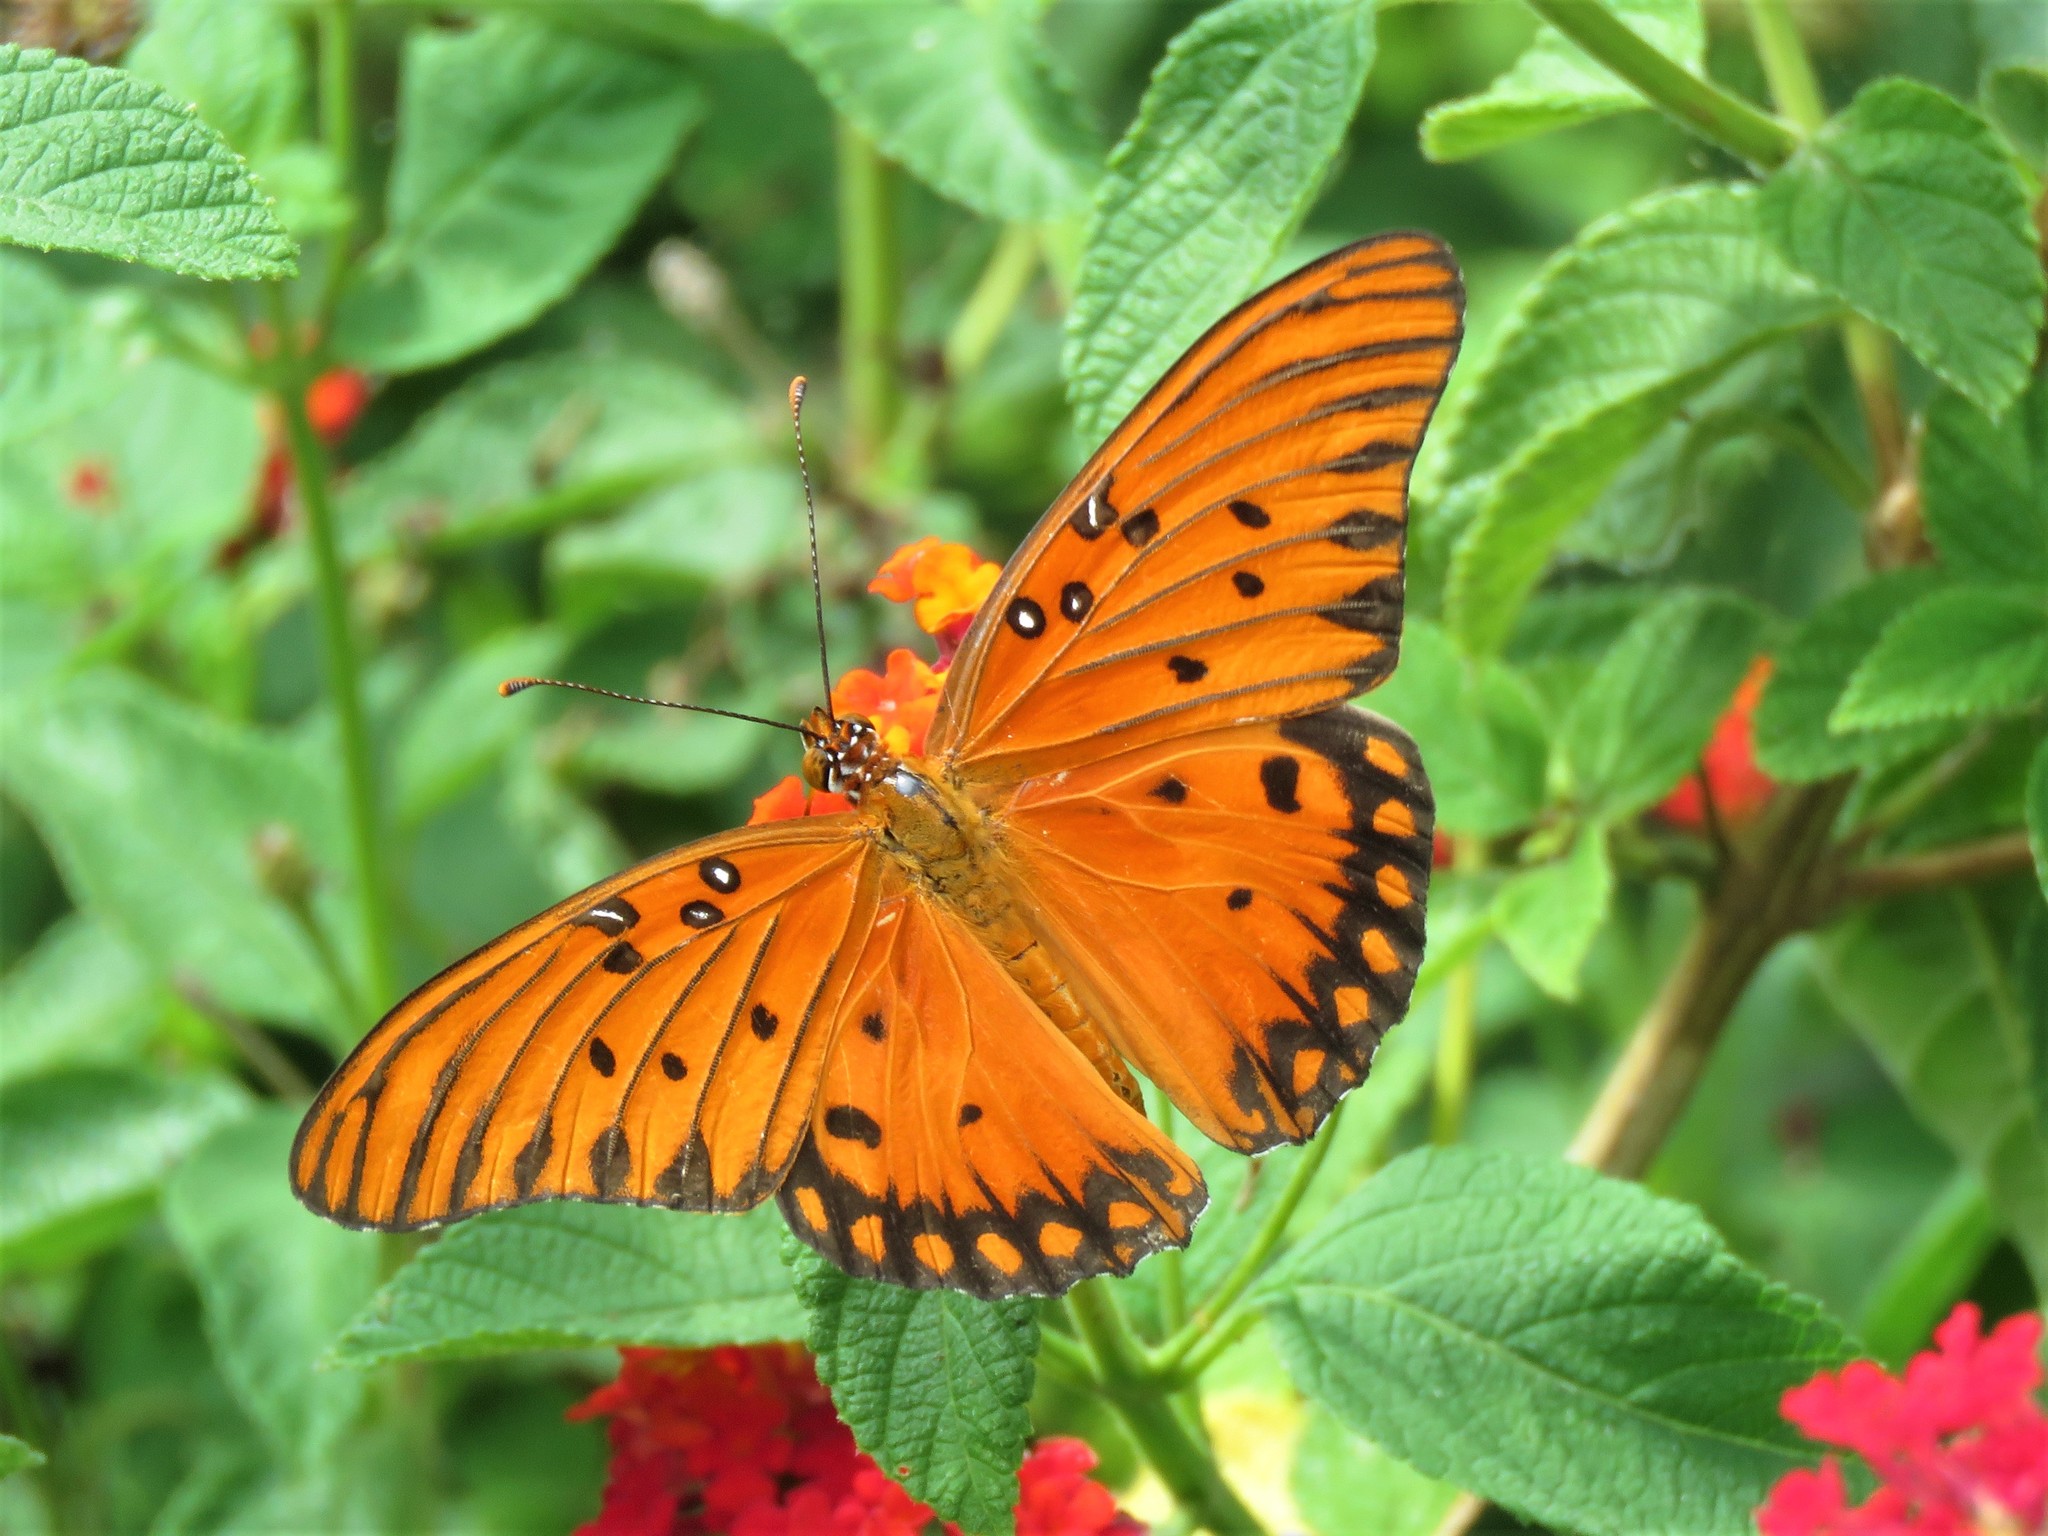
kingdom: Animalia
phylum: Arthropoda
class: Insecta
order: Lepidoptera
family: Nymphalidae
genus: Dione
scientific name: Dione vanillae
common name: Gulf fritillary
